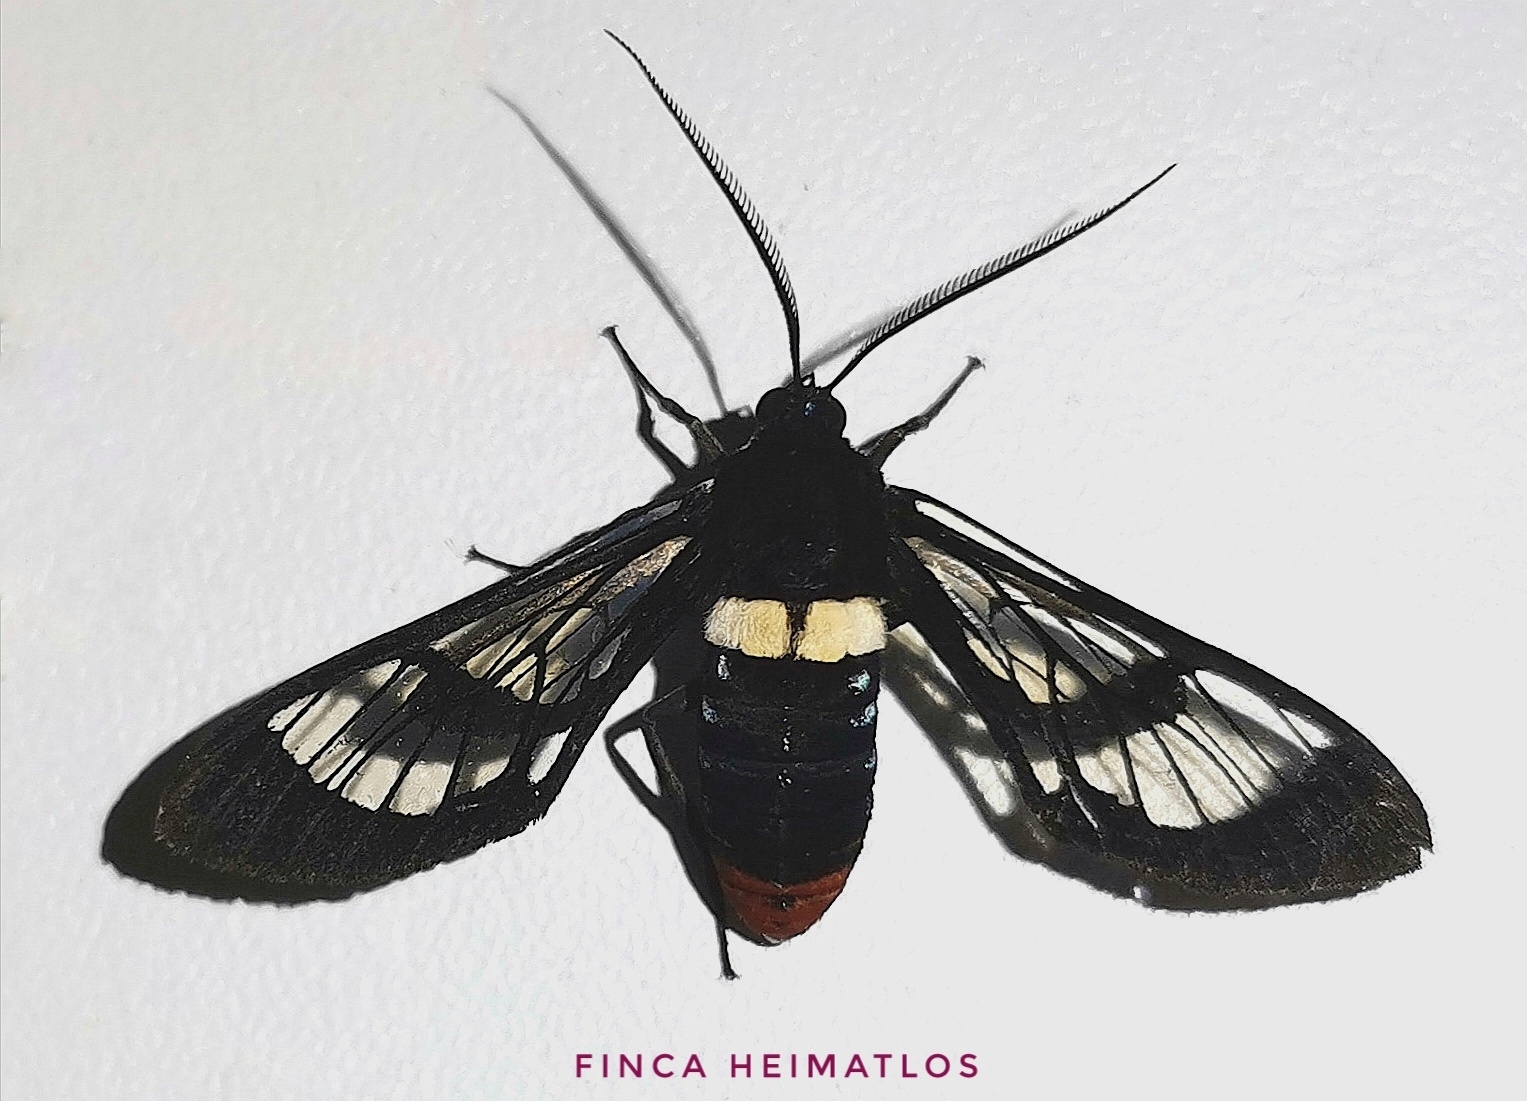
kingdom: Animalia
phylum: Arthropoda
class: Insecta
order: Lepidoptera
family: Erebidae
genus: Autochloris
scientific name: Autochloris xenodorus
